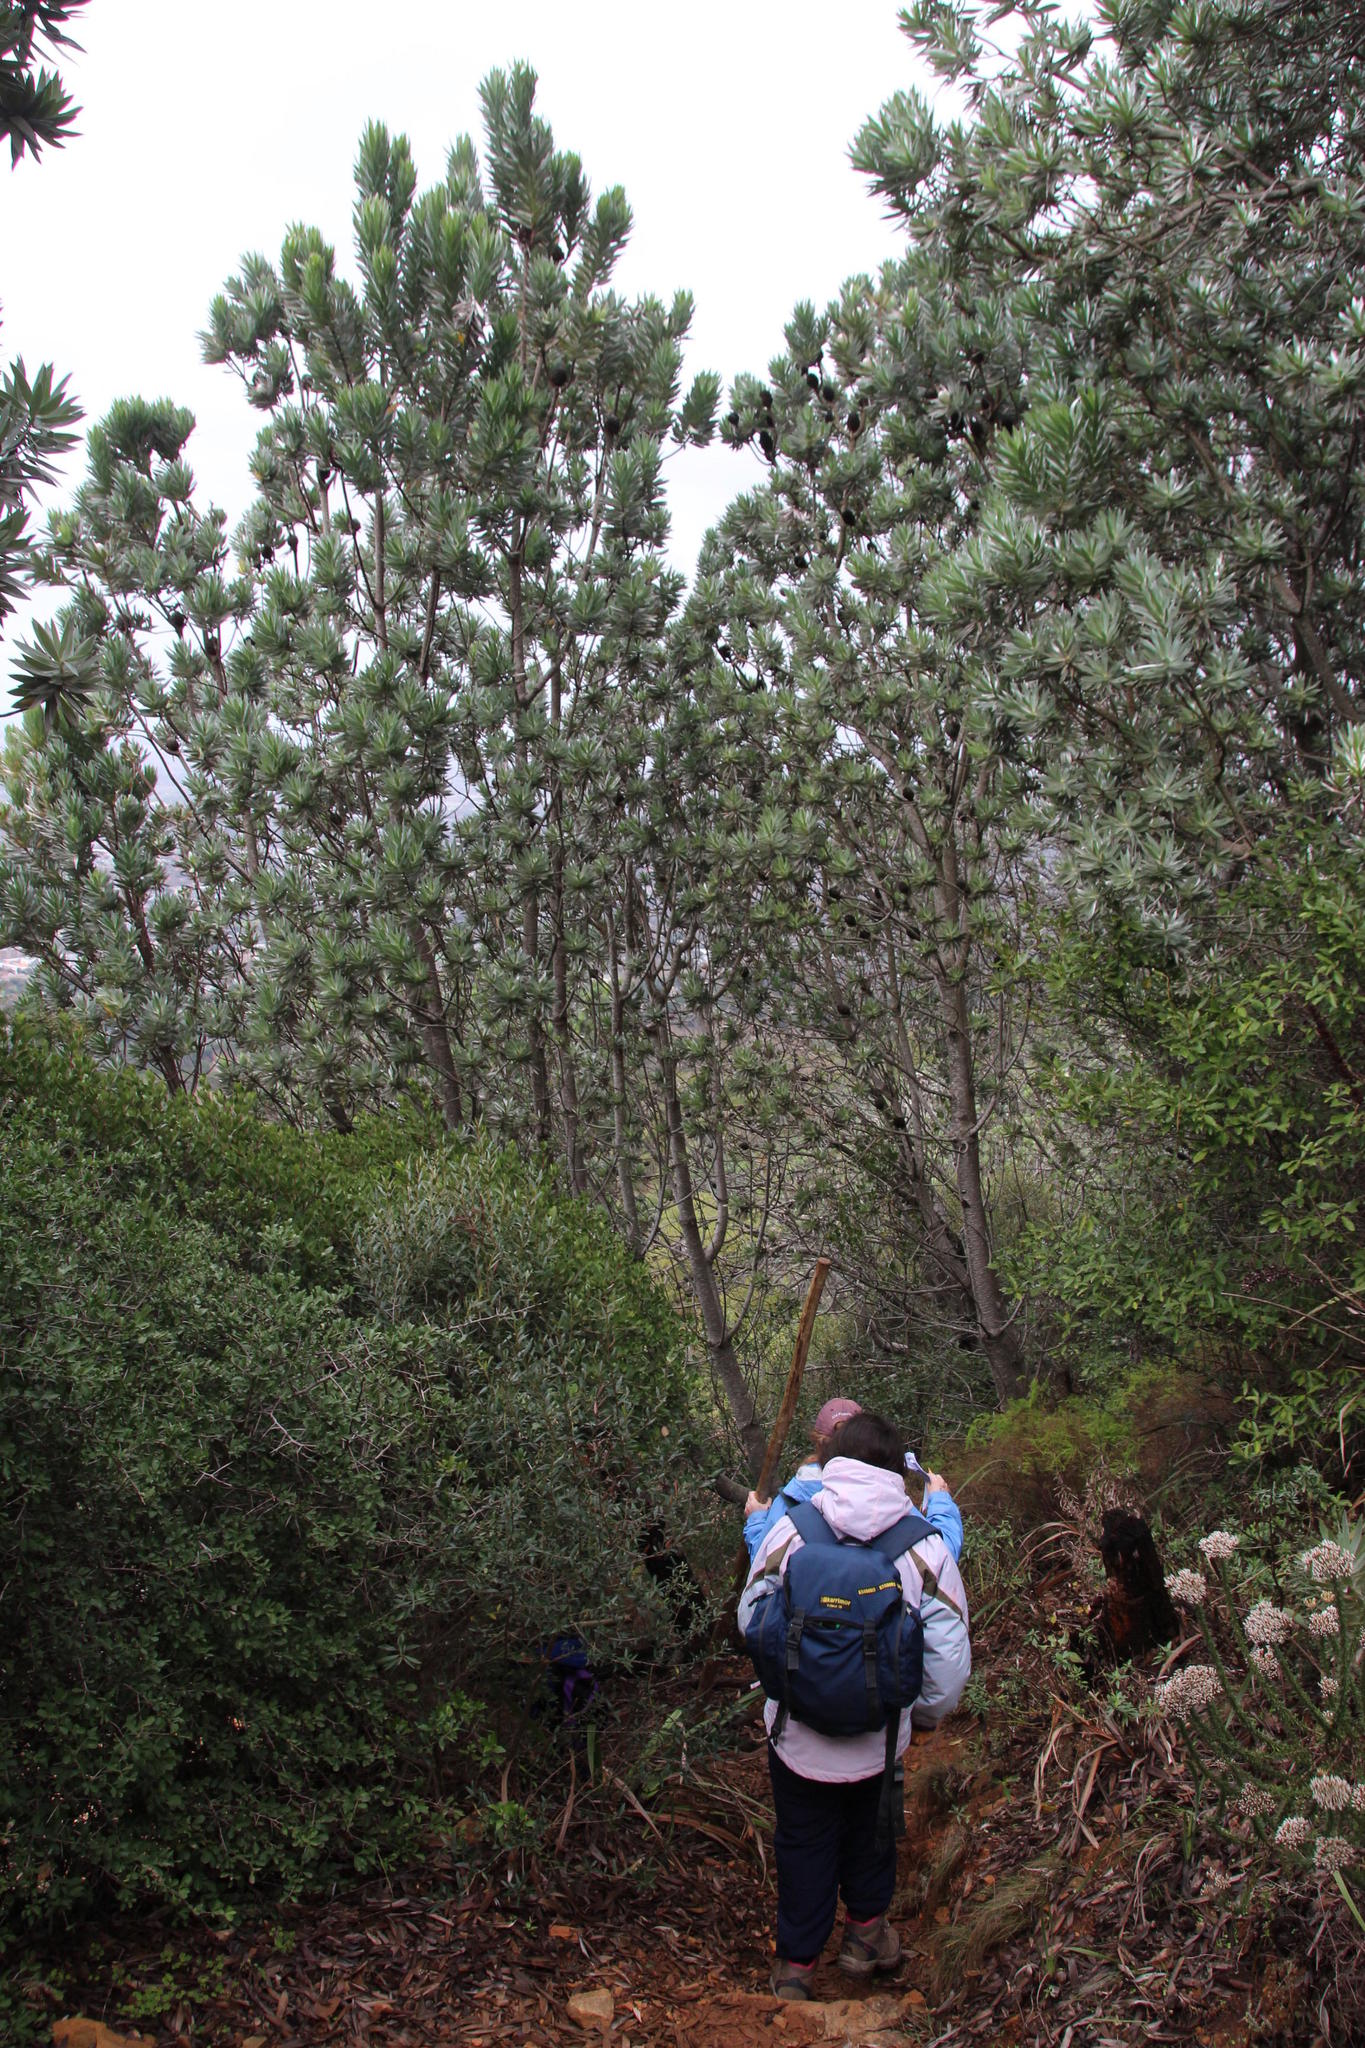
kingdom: Plantae
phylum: Tracheophyta
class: Magnoliopsida
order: Proteales
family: Proteaceae
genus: Leucadendron
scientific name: Leucadendron argenteum
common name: Cape silver tree
